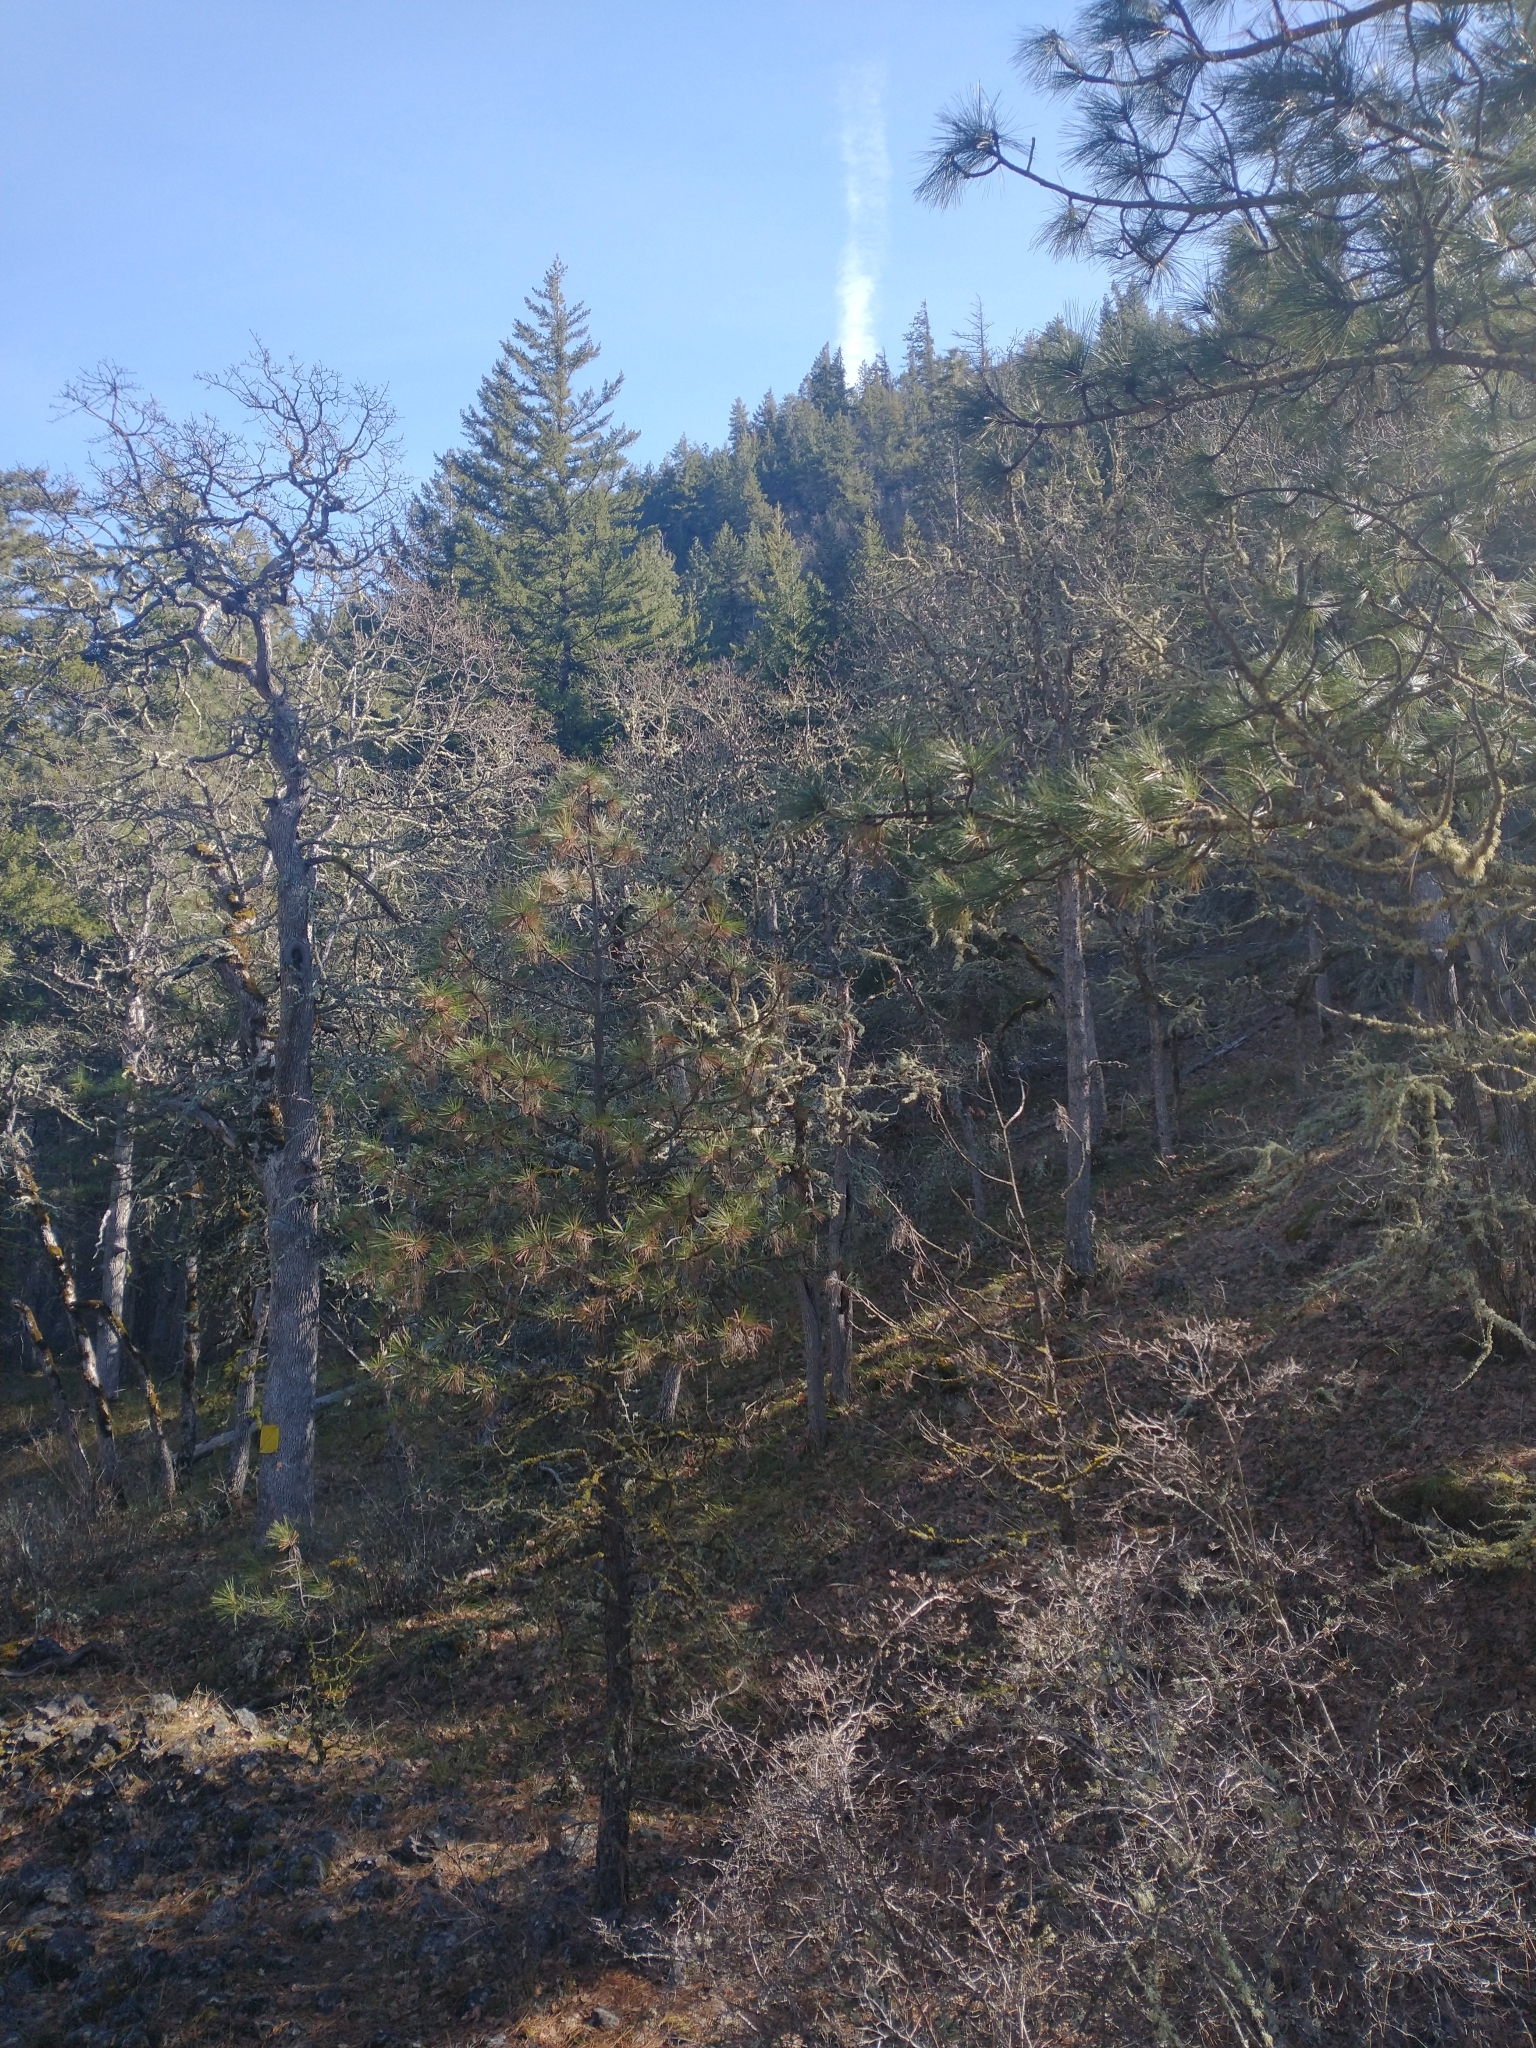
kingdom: Plantae
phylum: Tracheophyta
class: Pinopsida
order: Pinales
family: Pinaceae
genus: Pinus
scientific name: Pinus ponderosa
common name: Western yellow-pine
